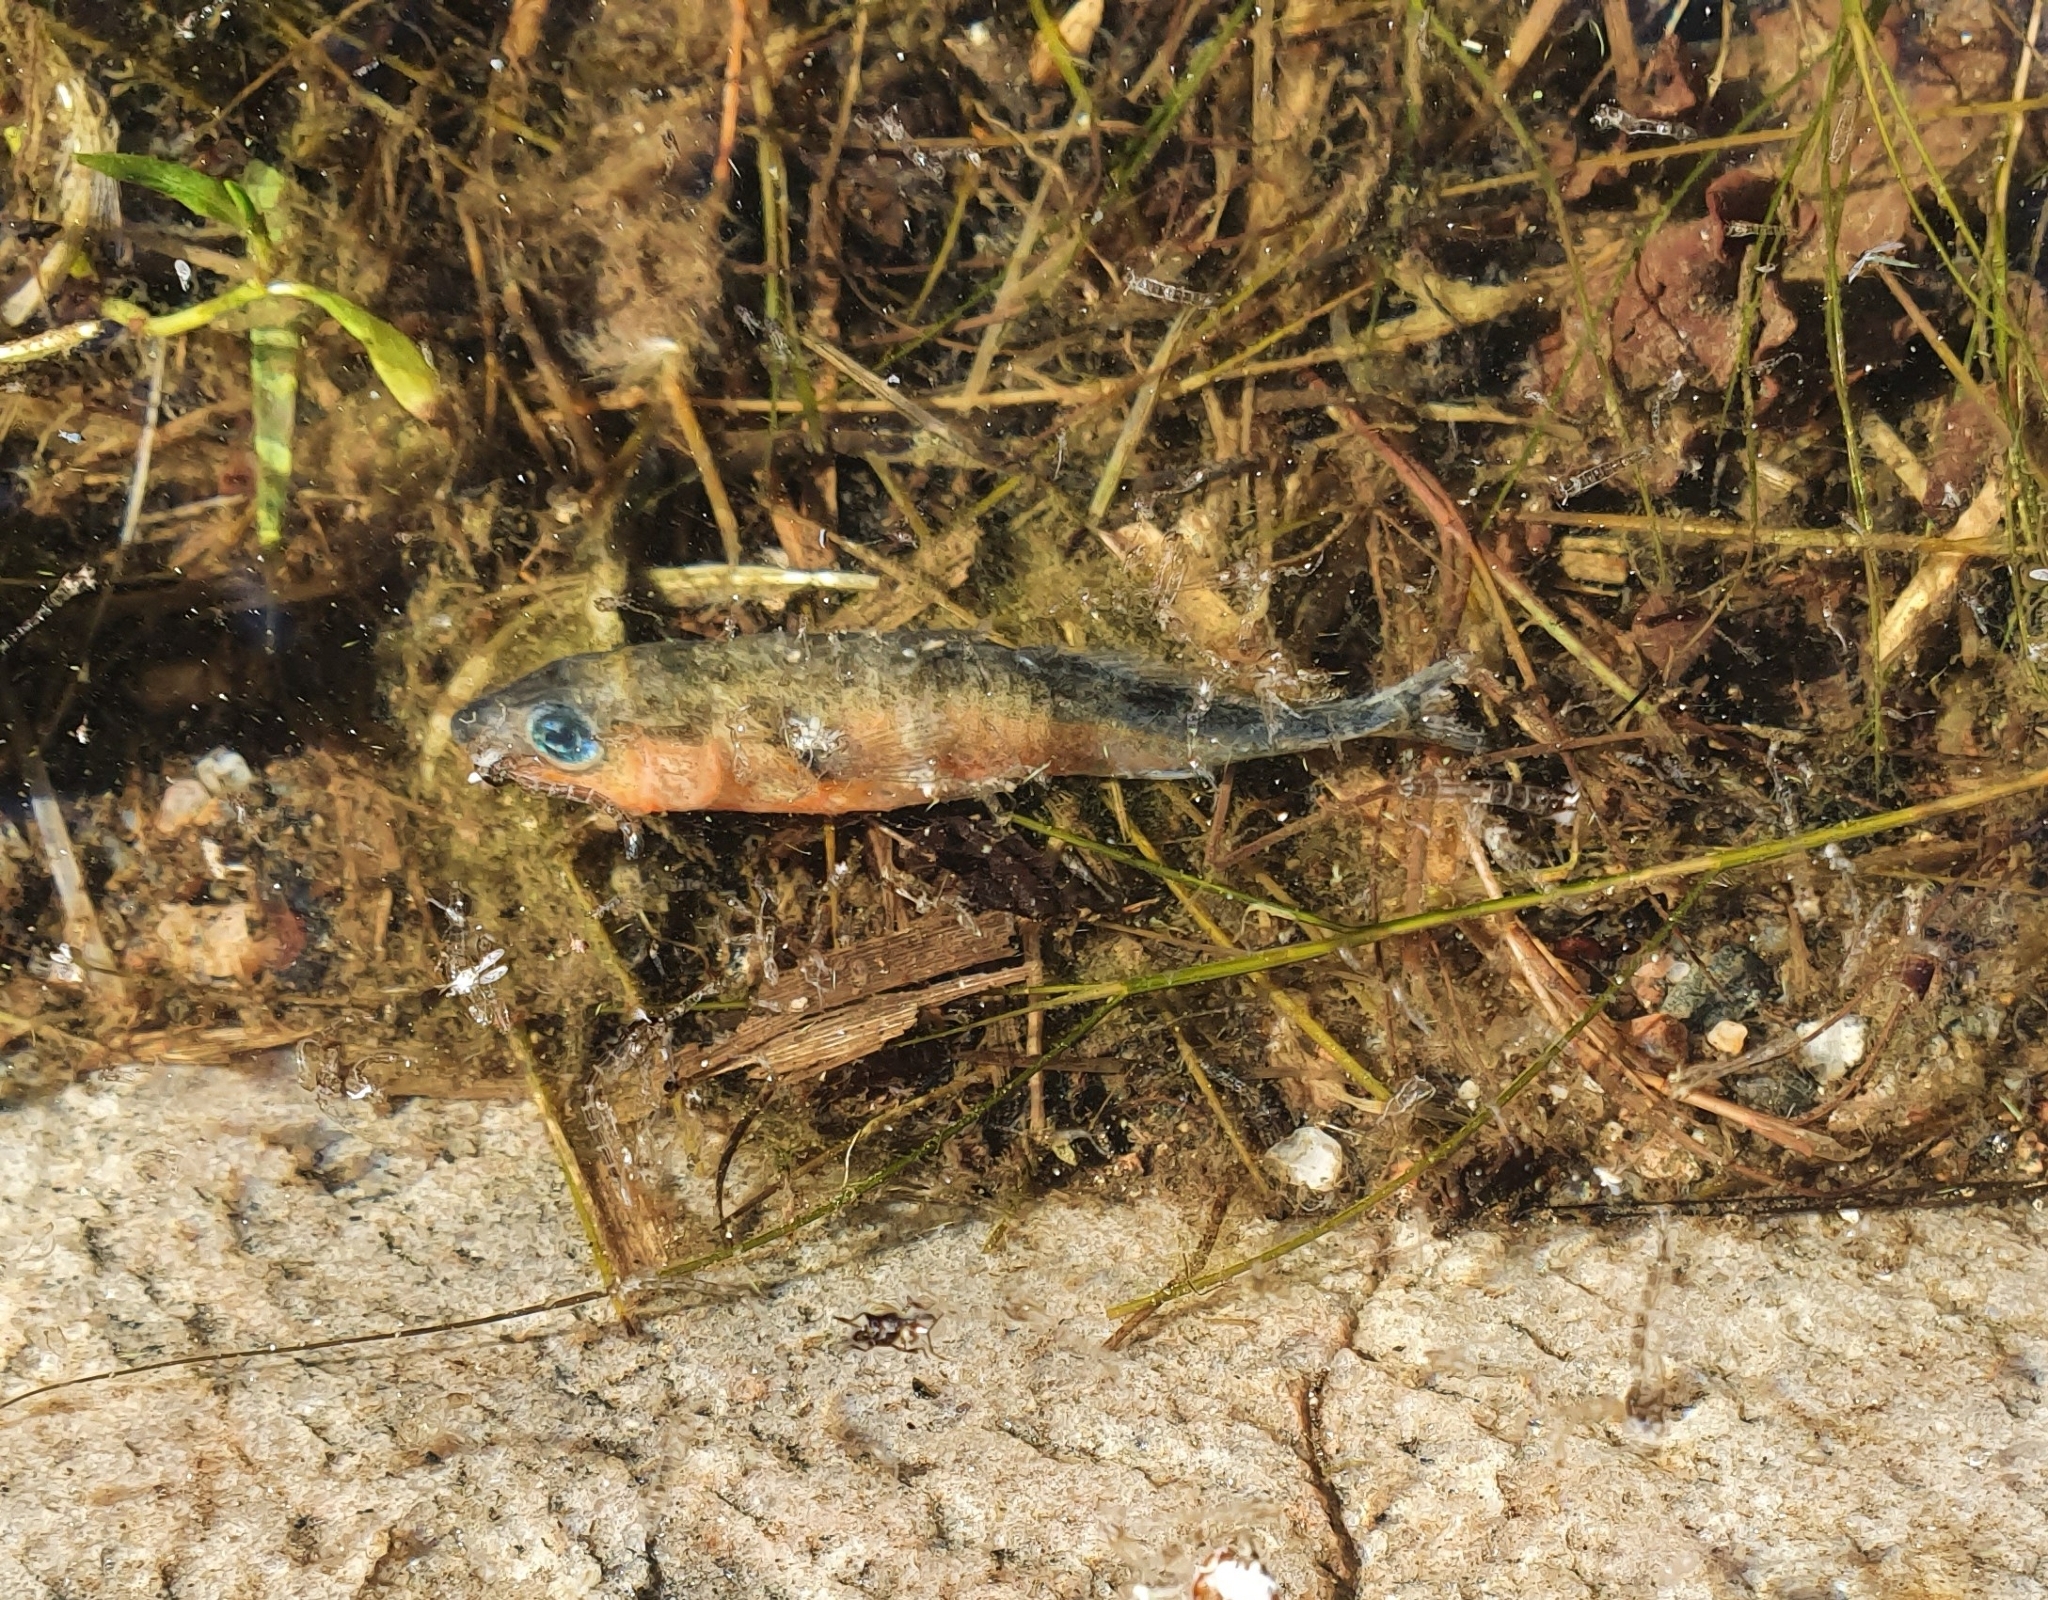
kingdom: Animalia
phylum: Chordata
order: Gasterosteiformes
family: Gasterosteidae
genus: Gasterosteus
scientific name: Gasterosteus aculeatus
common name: Three-spined stickleback
